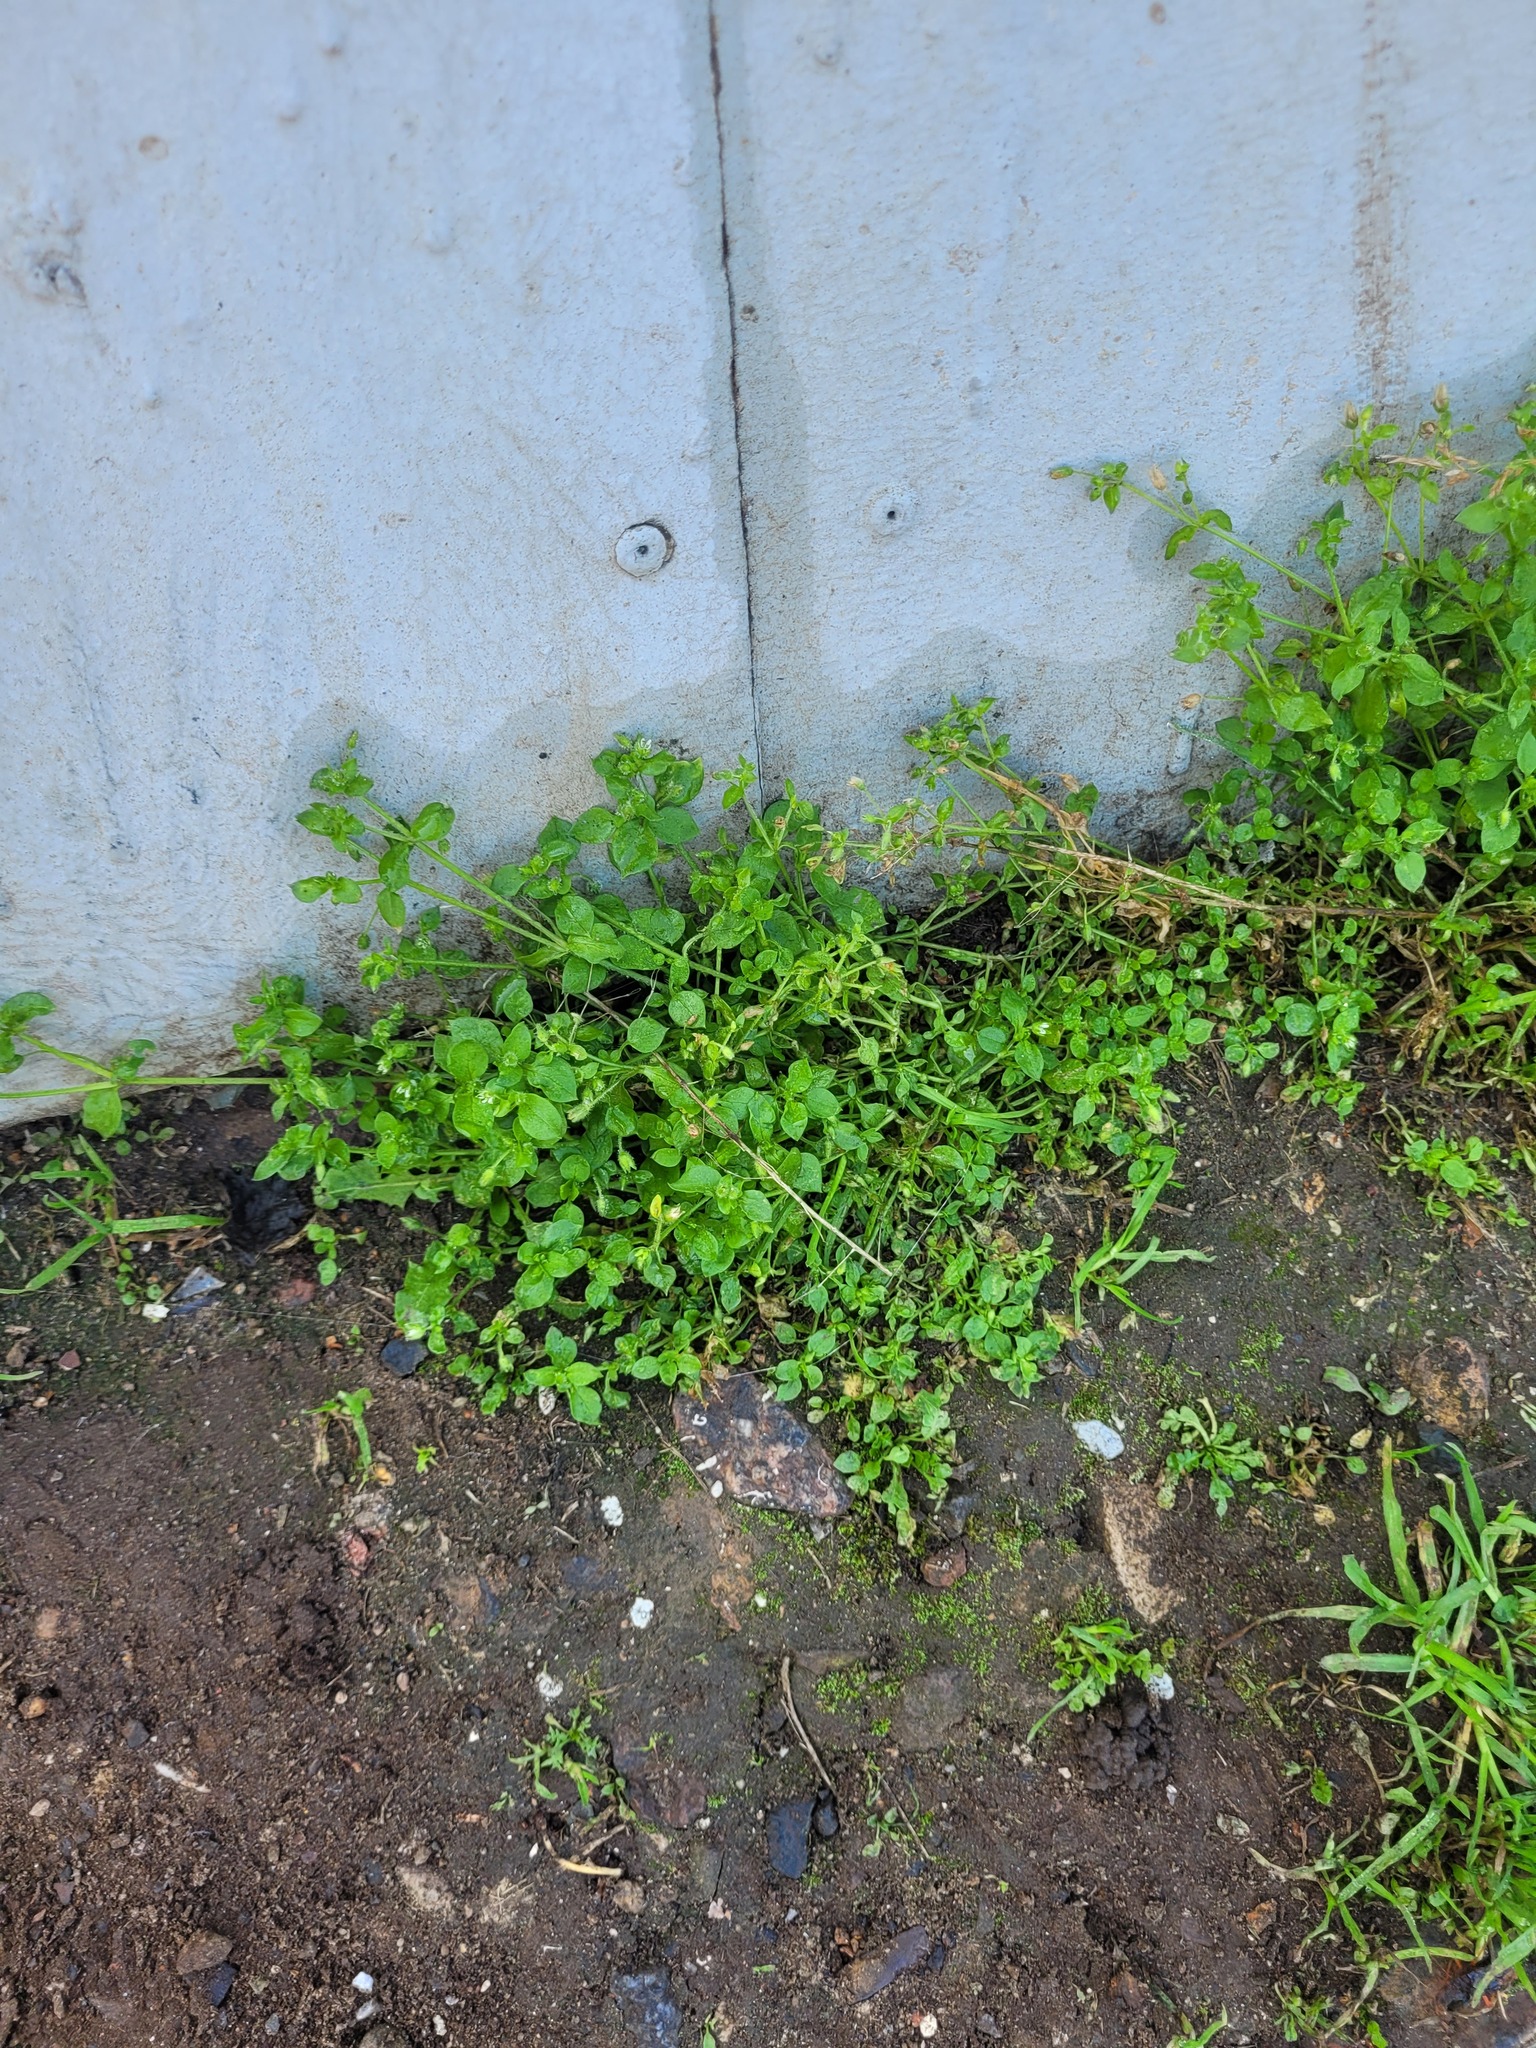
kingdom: Plantae
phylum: Tracheophyta
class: Magnoliopsida
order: Caryophyllales
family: Caryophyllaceae
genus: Stellaria
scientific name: Stellaria media
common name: Common chickweed
